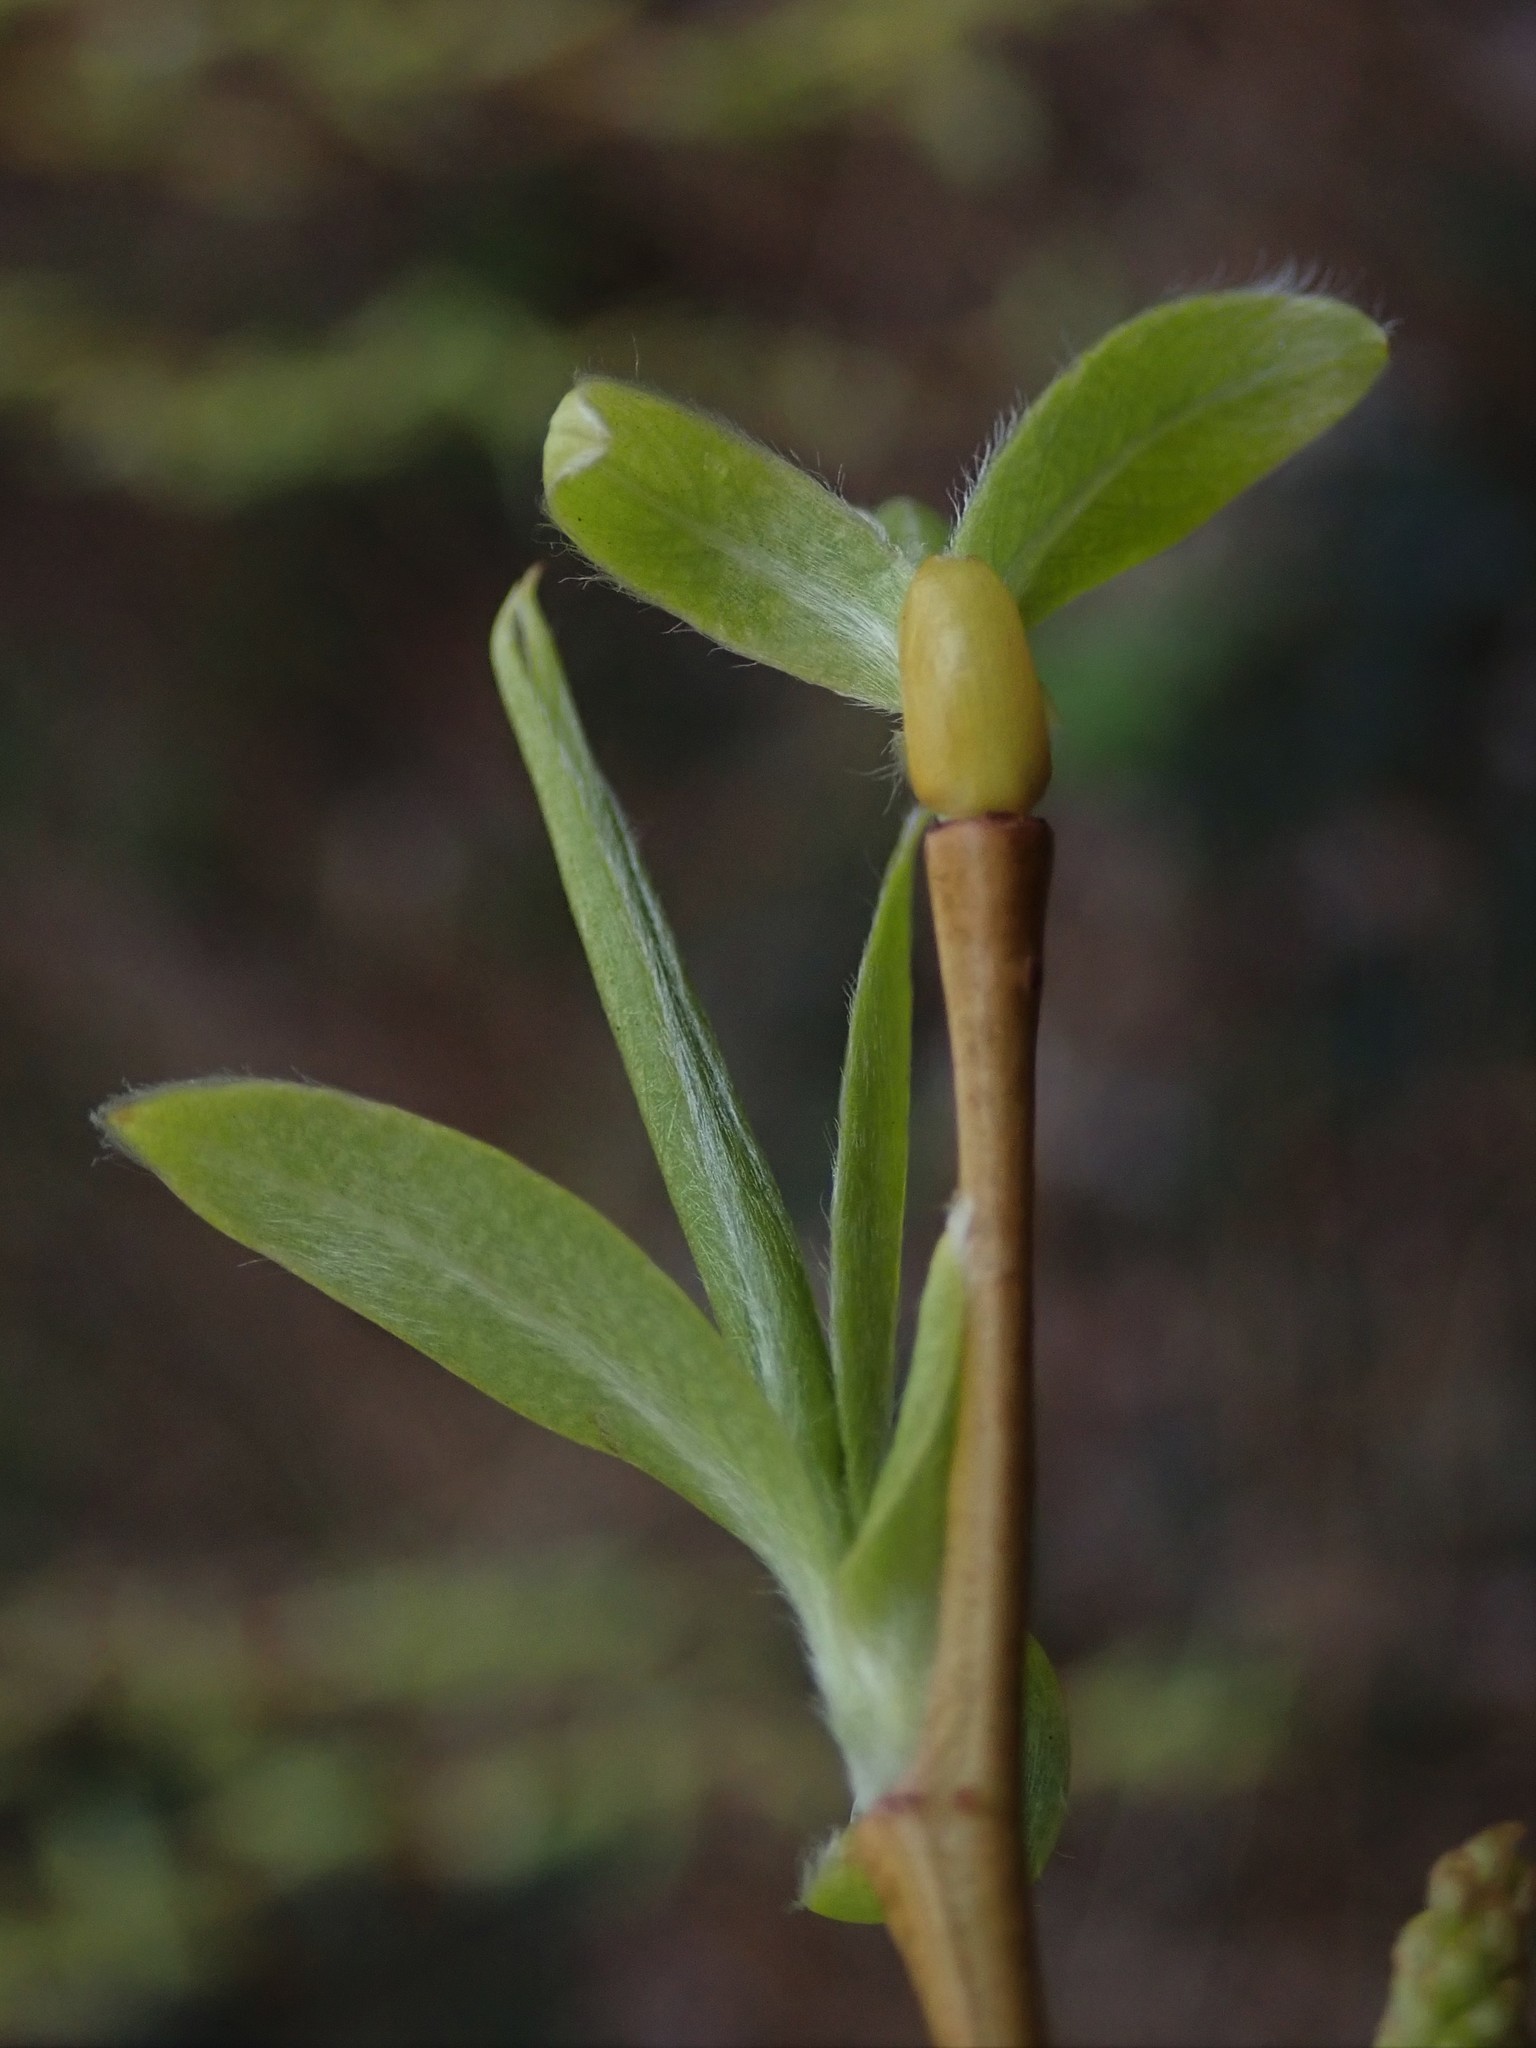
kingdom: Plantae
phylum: Tracheophyta
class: Magnoliopsida
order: Malpighiales
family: Salicaceae
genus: Salix
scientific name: Salix pendulina
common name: Wisconsin weeping willow
